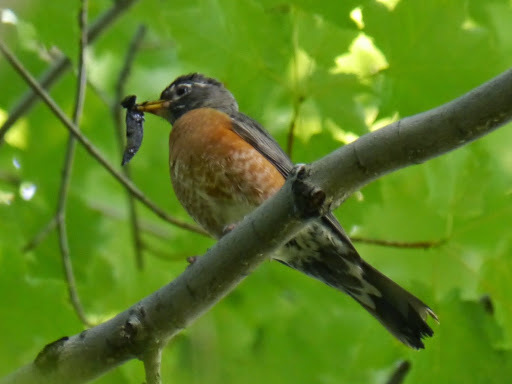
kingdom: Animalia
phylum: Chordata
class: Aves
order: Passeriformes
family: Turdidae
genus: Turdus
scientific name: Turdus migratorius
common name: American robin
